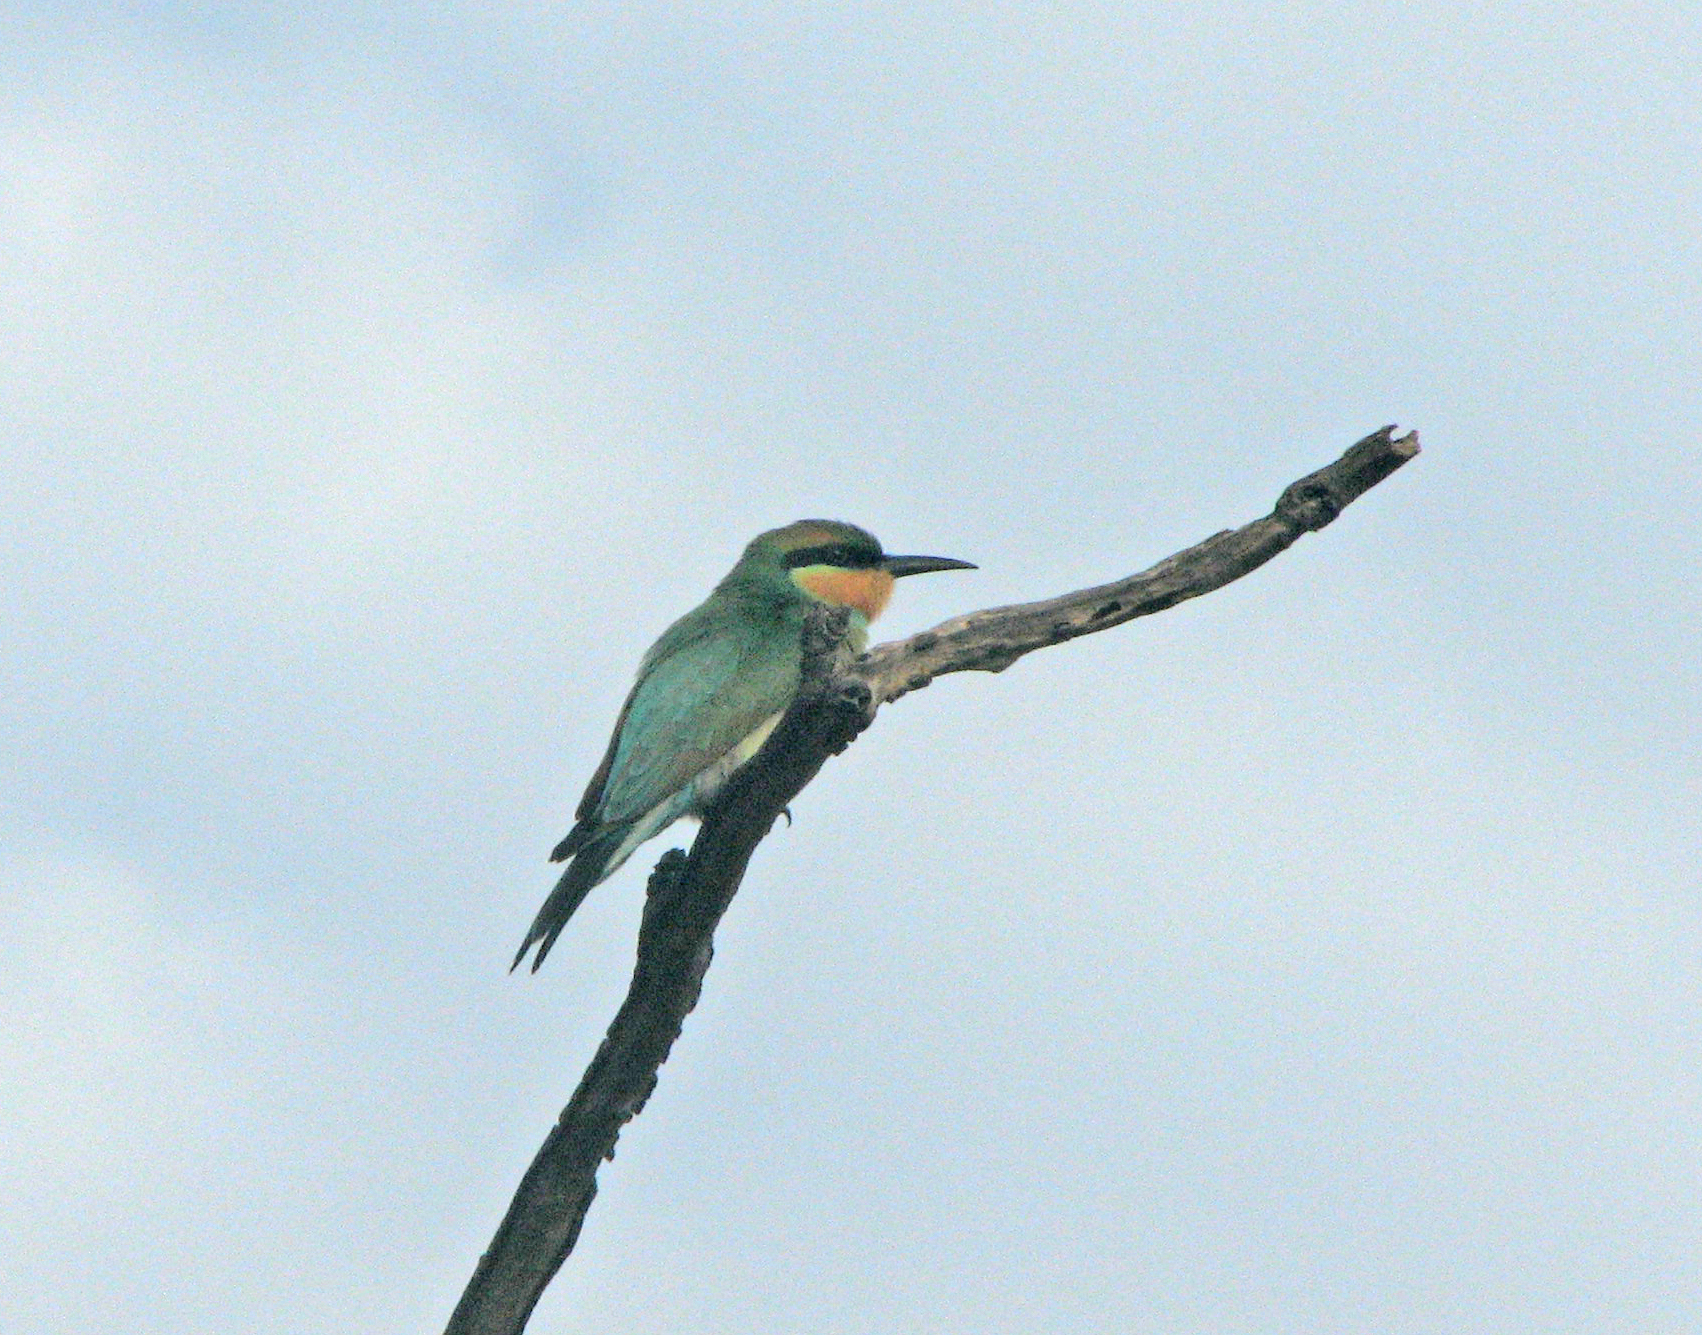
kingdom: Animalia
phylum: Chordata
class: Aves
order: Coraciiformes
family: Meropidae
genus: Merops
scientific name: Merops ornatus
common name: Rainbow bee-eater
